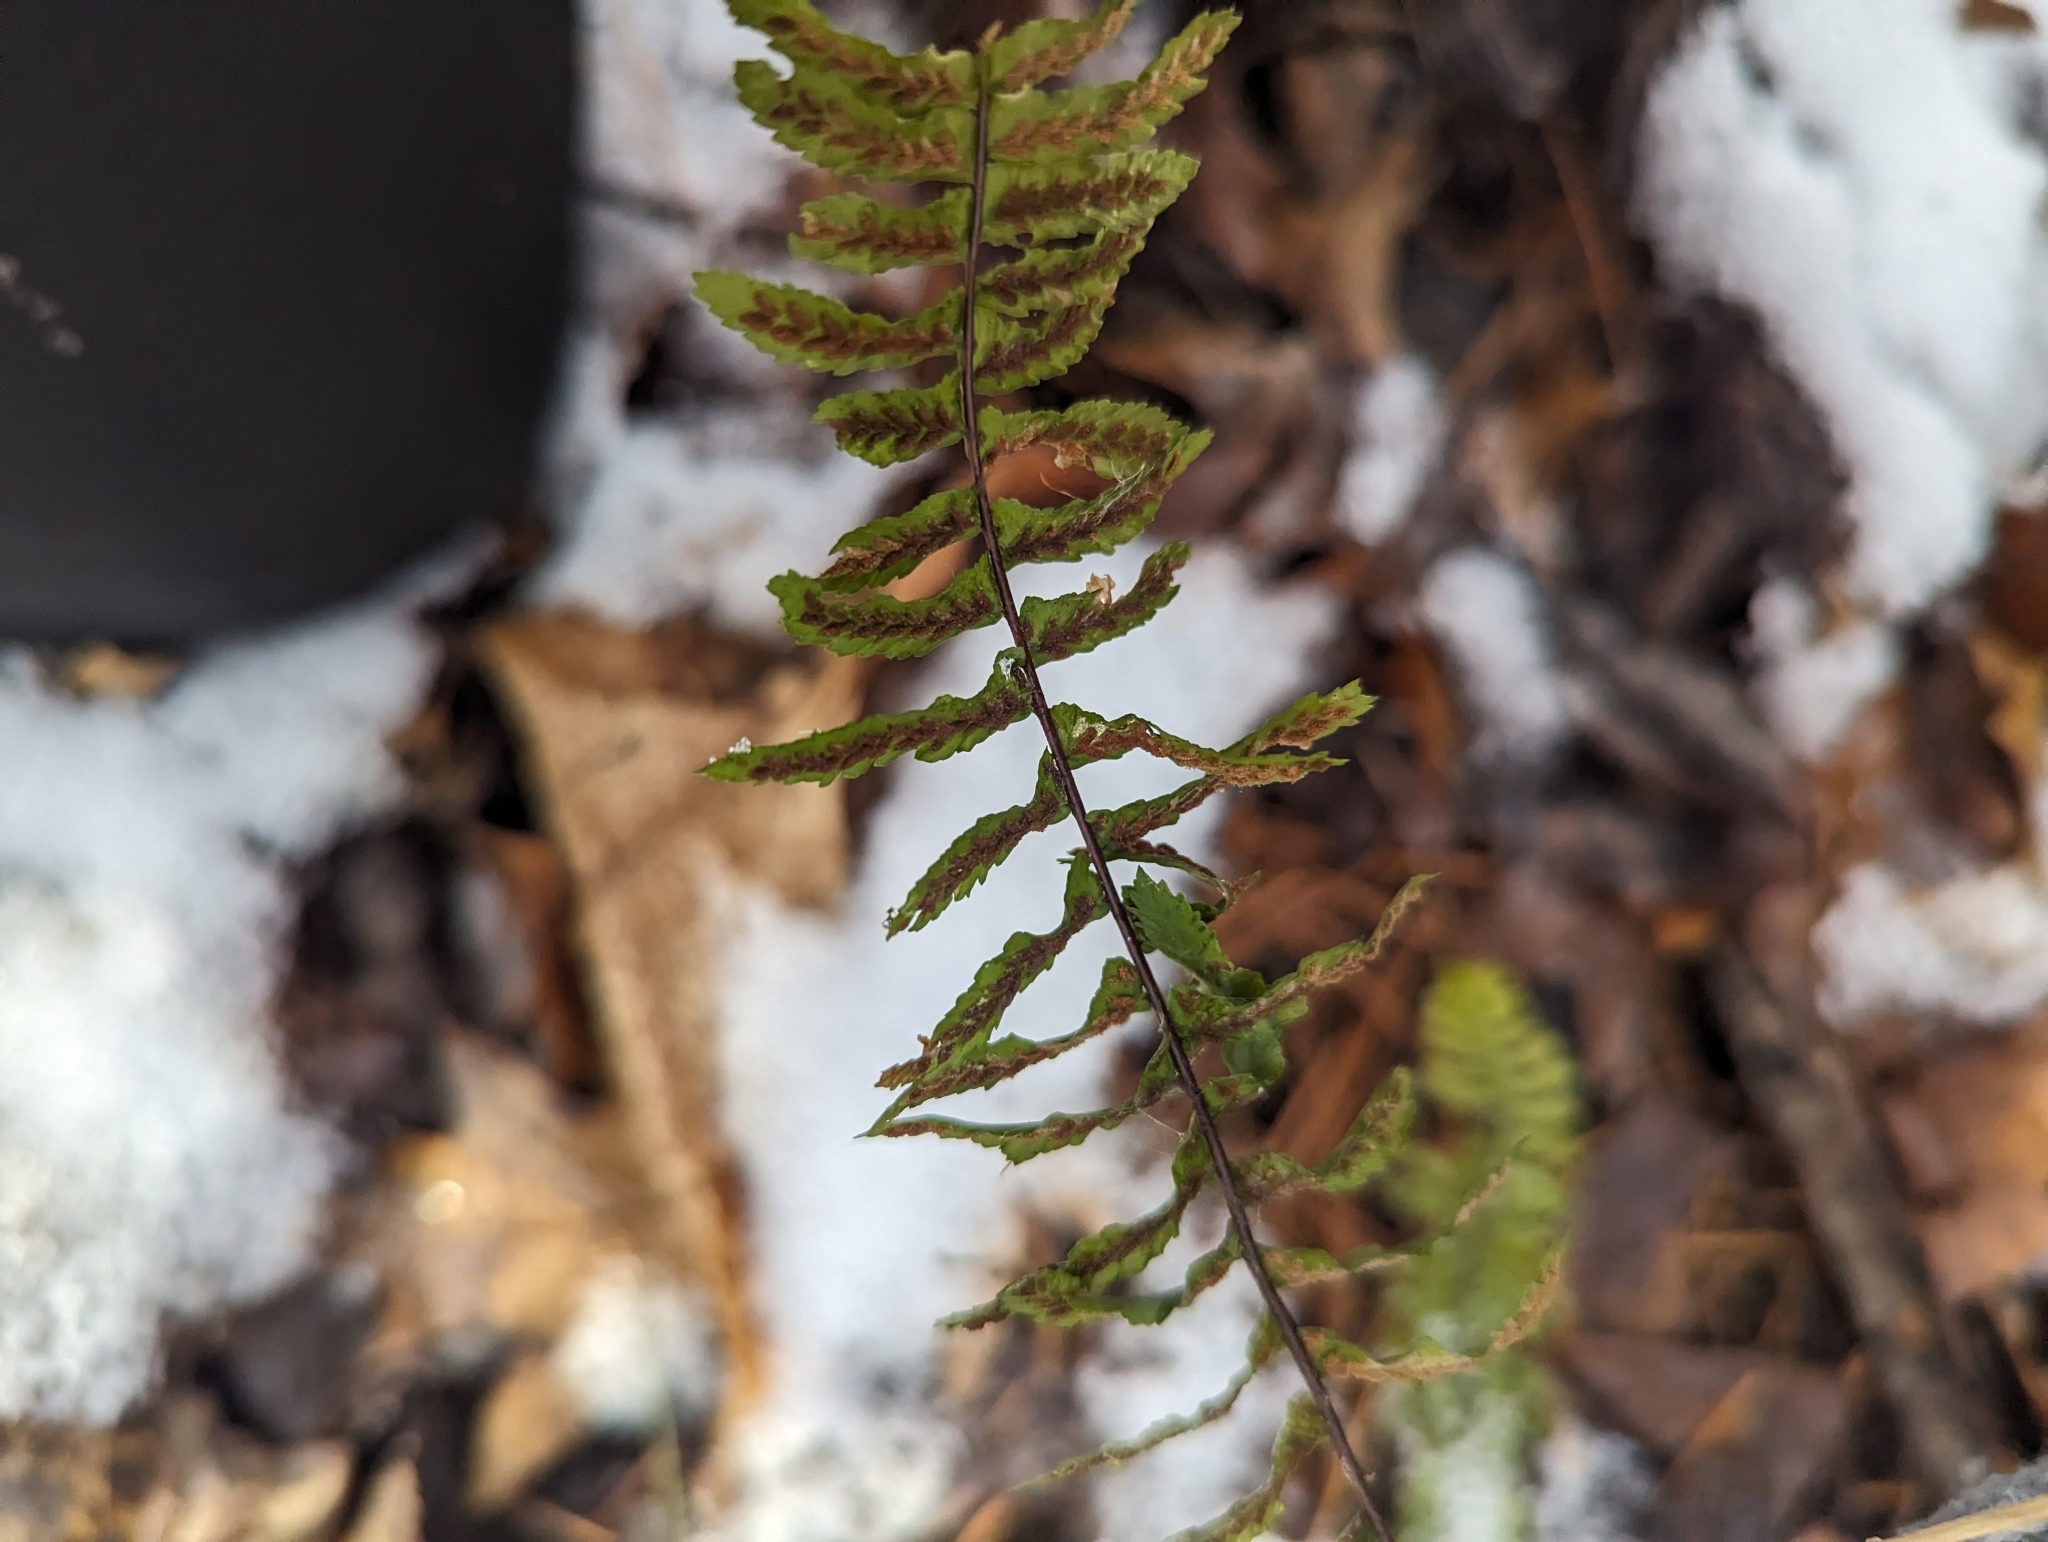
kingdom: Plantae
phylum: Tracheophyta
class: Polypodiopsida
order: Polypodiales
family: Aspleniaceae
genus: Asplenium
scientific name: Asplenium platyneuron
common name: Ebony spleenwort
